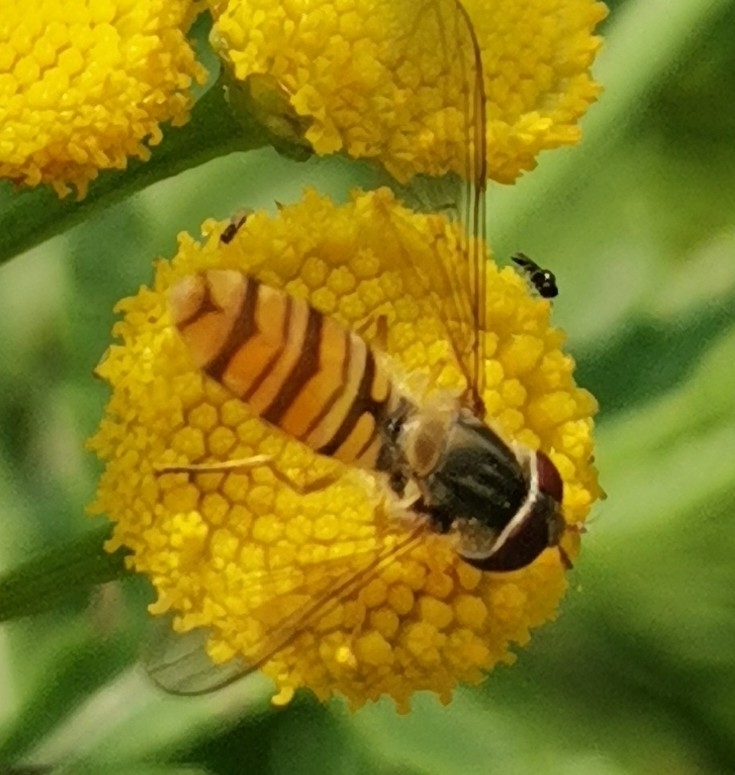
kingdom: Animalia
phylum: Arthropoda
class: Insecta
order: Diptera
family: Syrphidae
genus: Episyrphus
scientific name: Episyrphus balteatus
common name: Marmalade hoverfly
